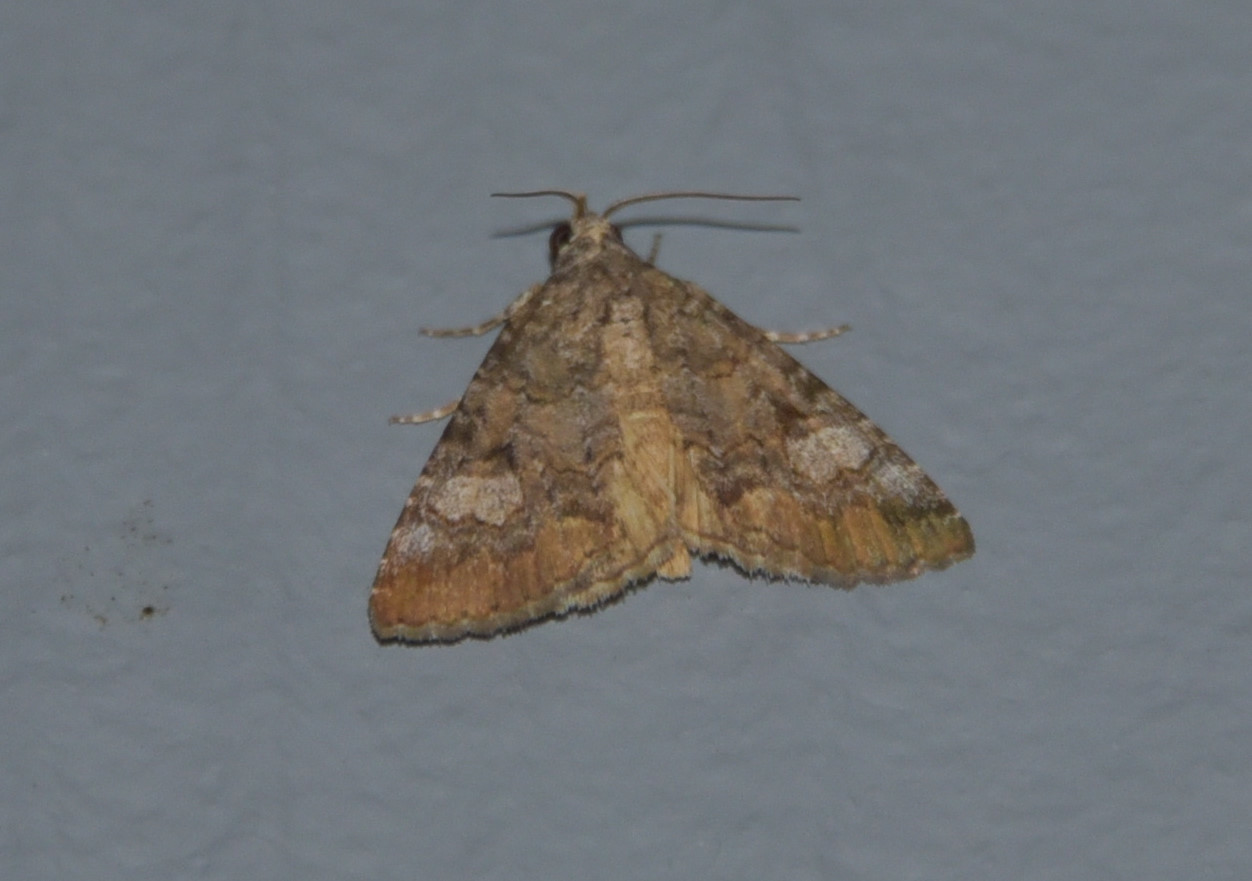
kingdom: Animalia
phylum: Arthropoda
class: Insecta
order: Lepidoptera
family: Erebidae
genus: Eubolina
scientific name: Eubolina impartialis
